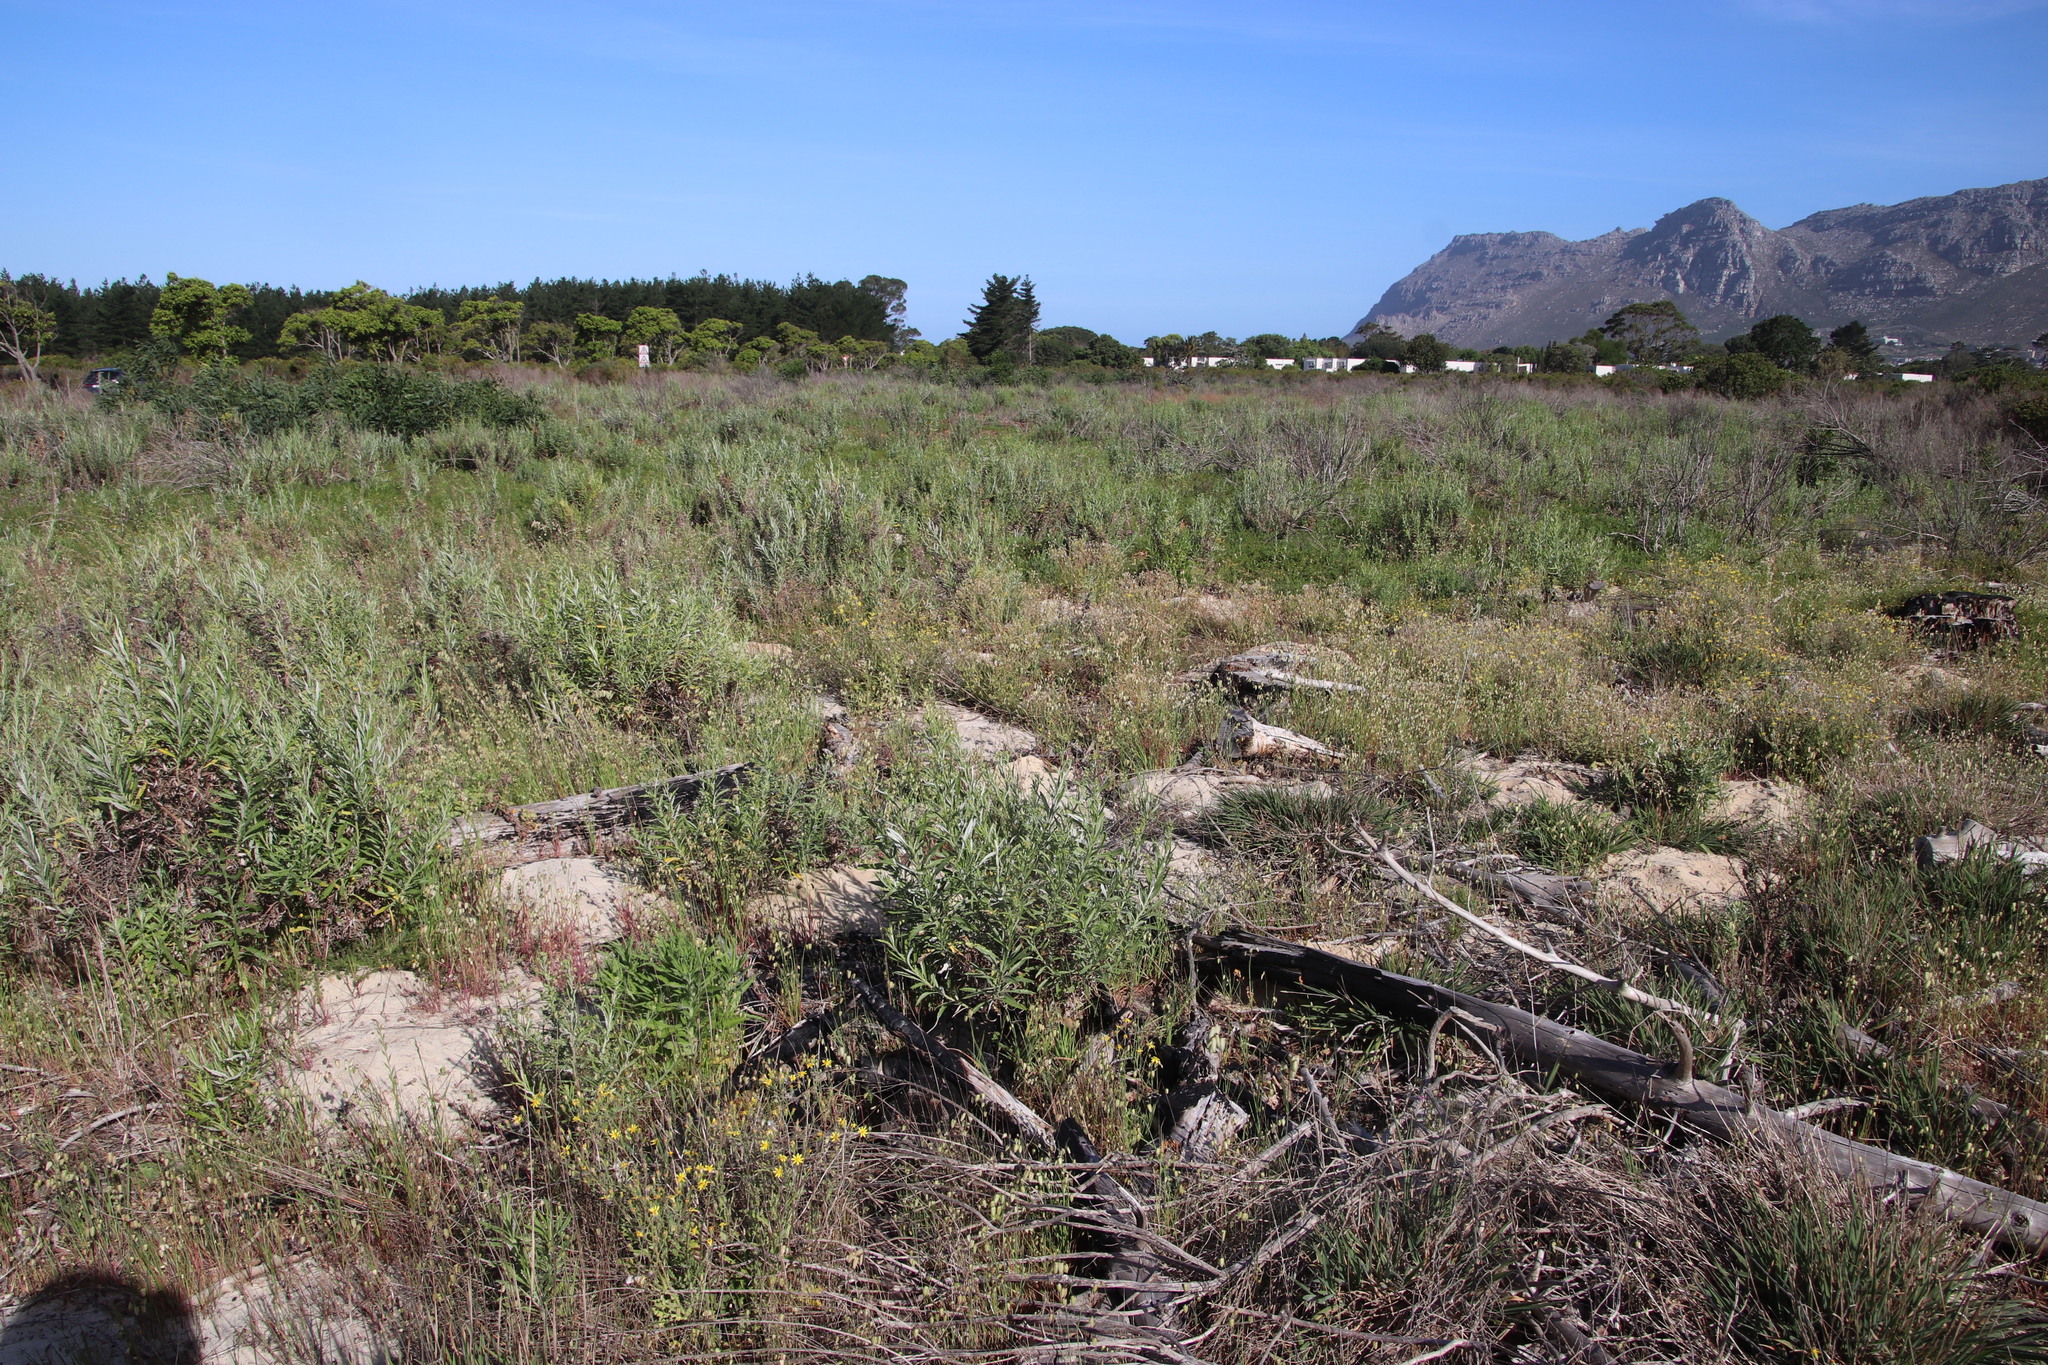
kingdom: Plantae
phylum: Tracheophyta
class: Magnoliopsida
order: Asterales
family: Asteraceae
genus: Senecio
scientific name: Senecio pterophorus
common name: Shoddy ragwort
